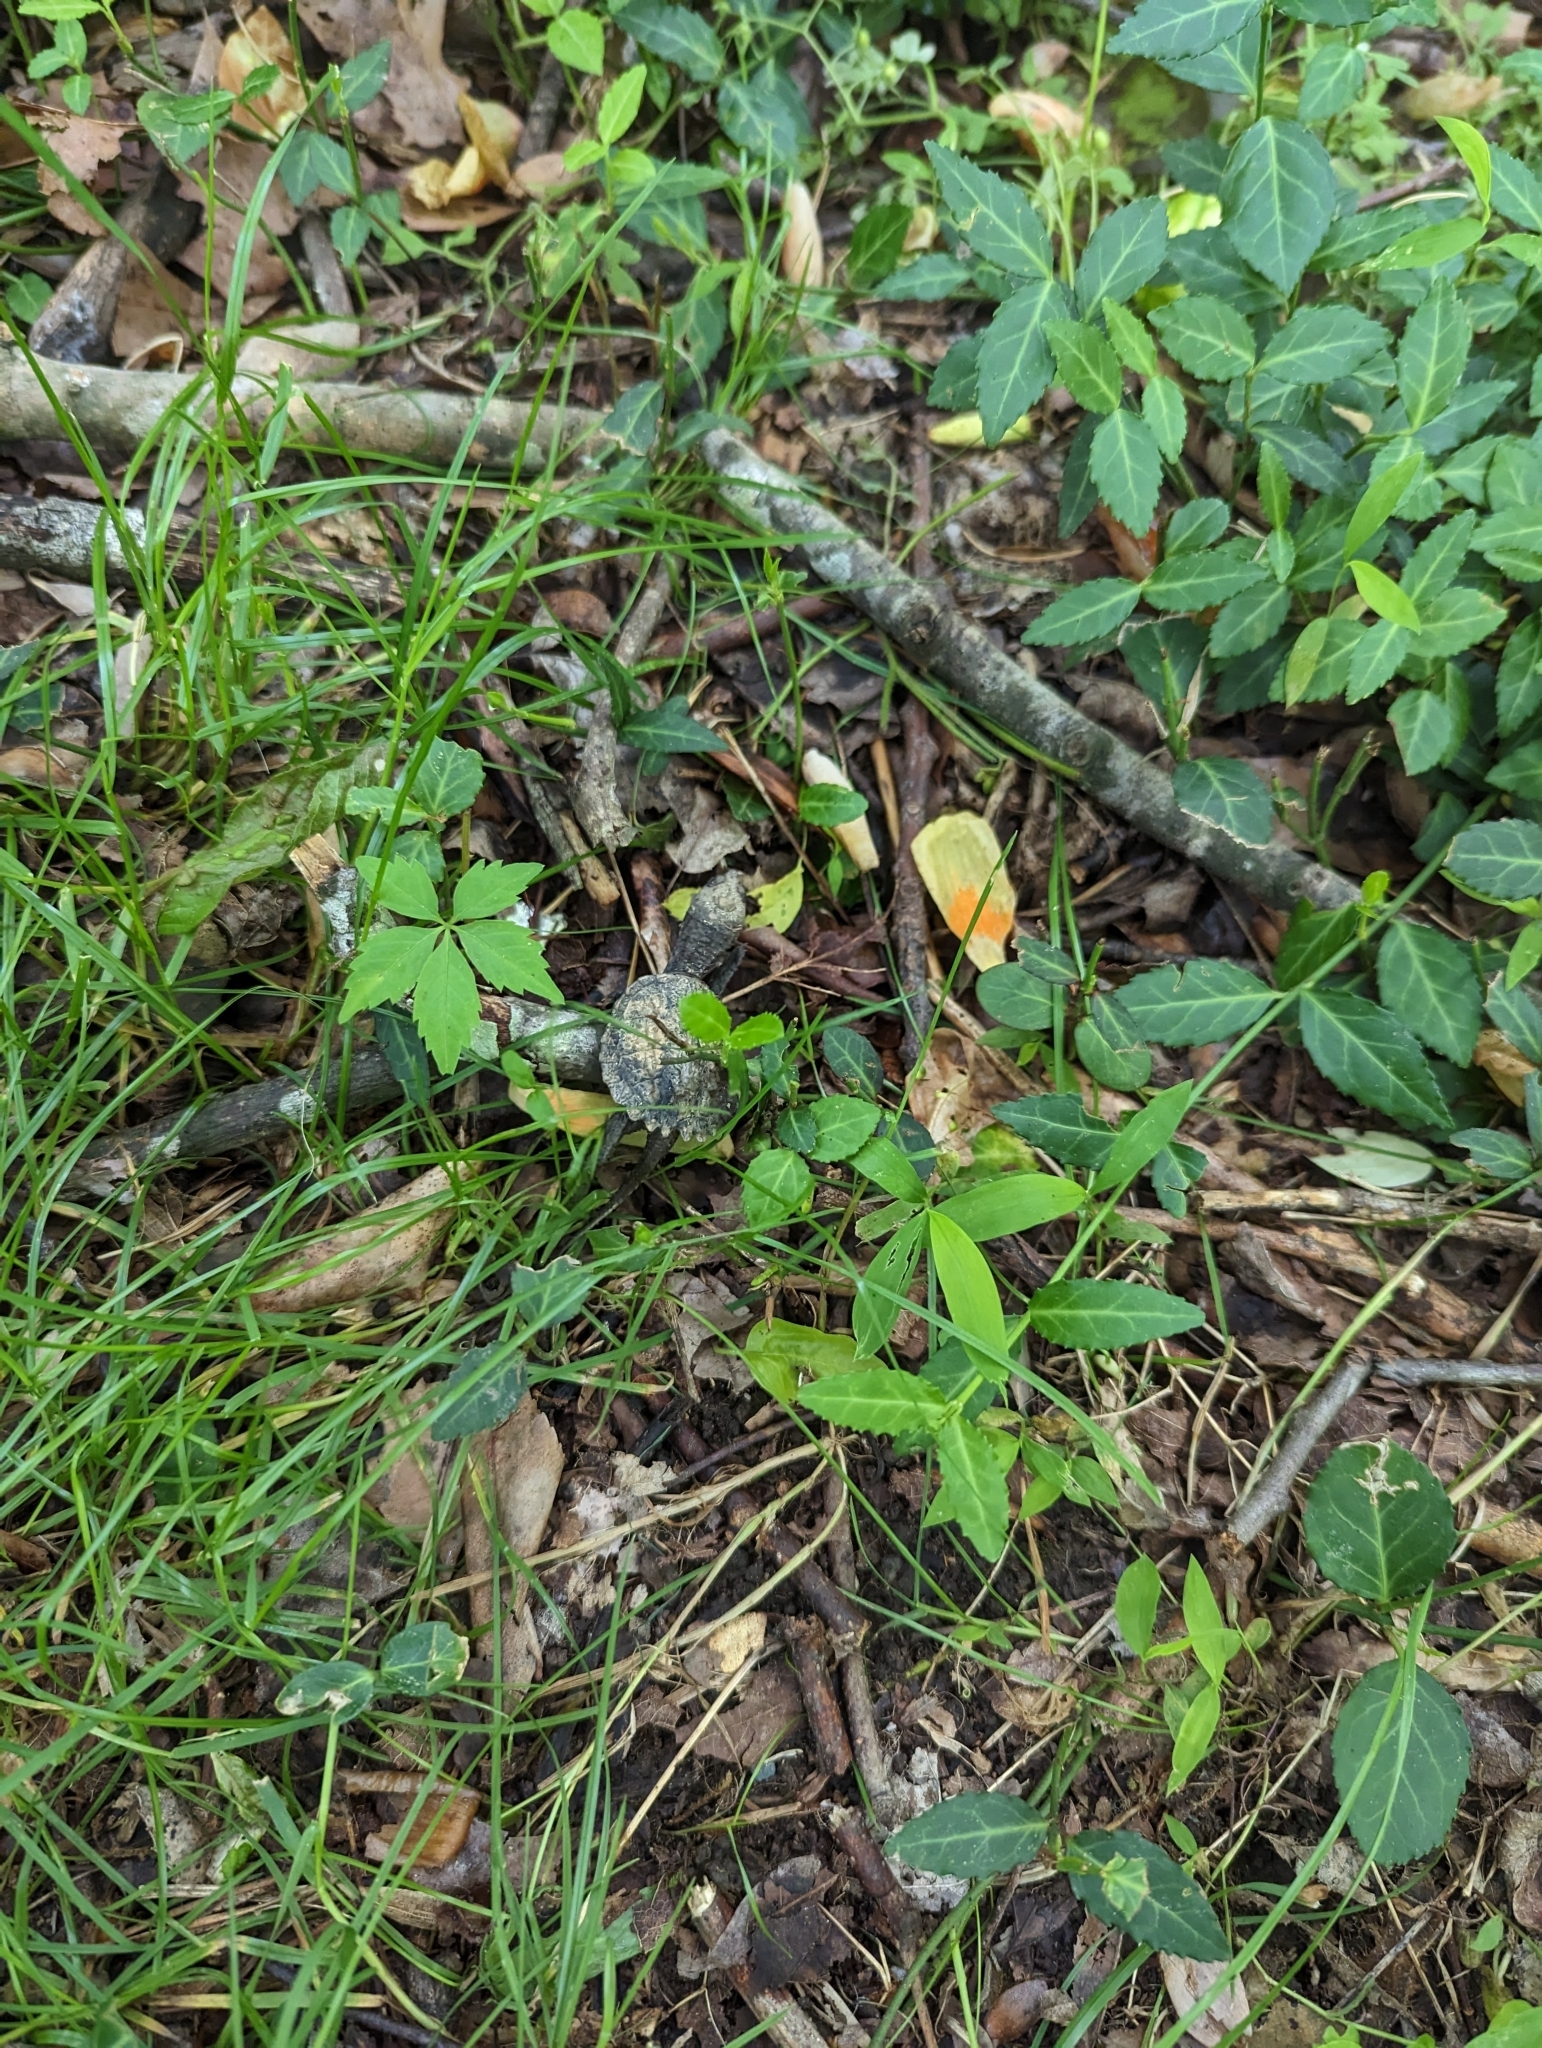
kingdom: Animalia
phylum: Chordata
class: Testudines
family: Chelydridae
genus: Chelydra
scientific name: Chelydra serpentina
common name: Common snapping turtle
